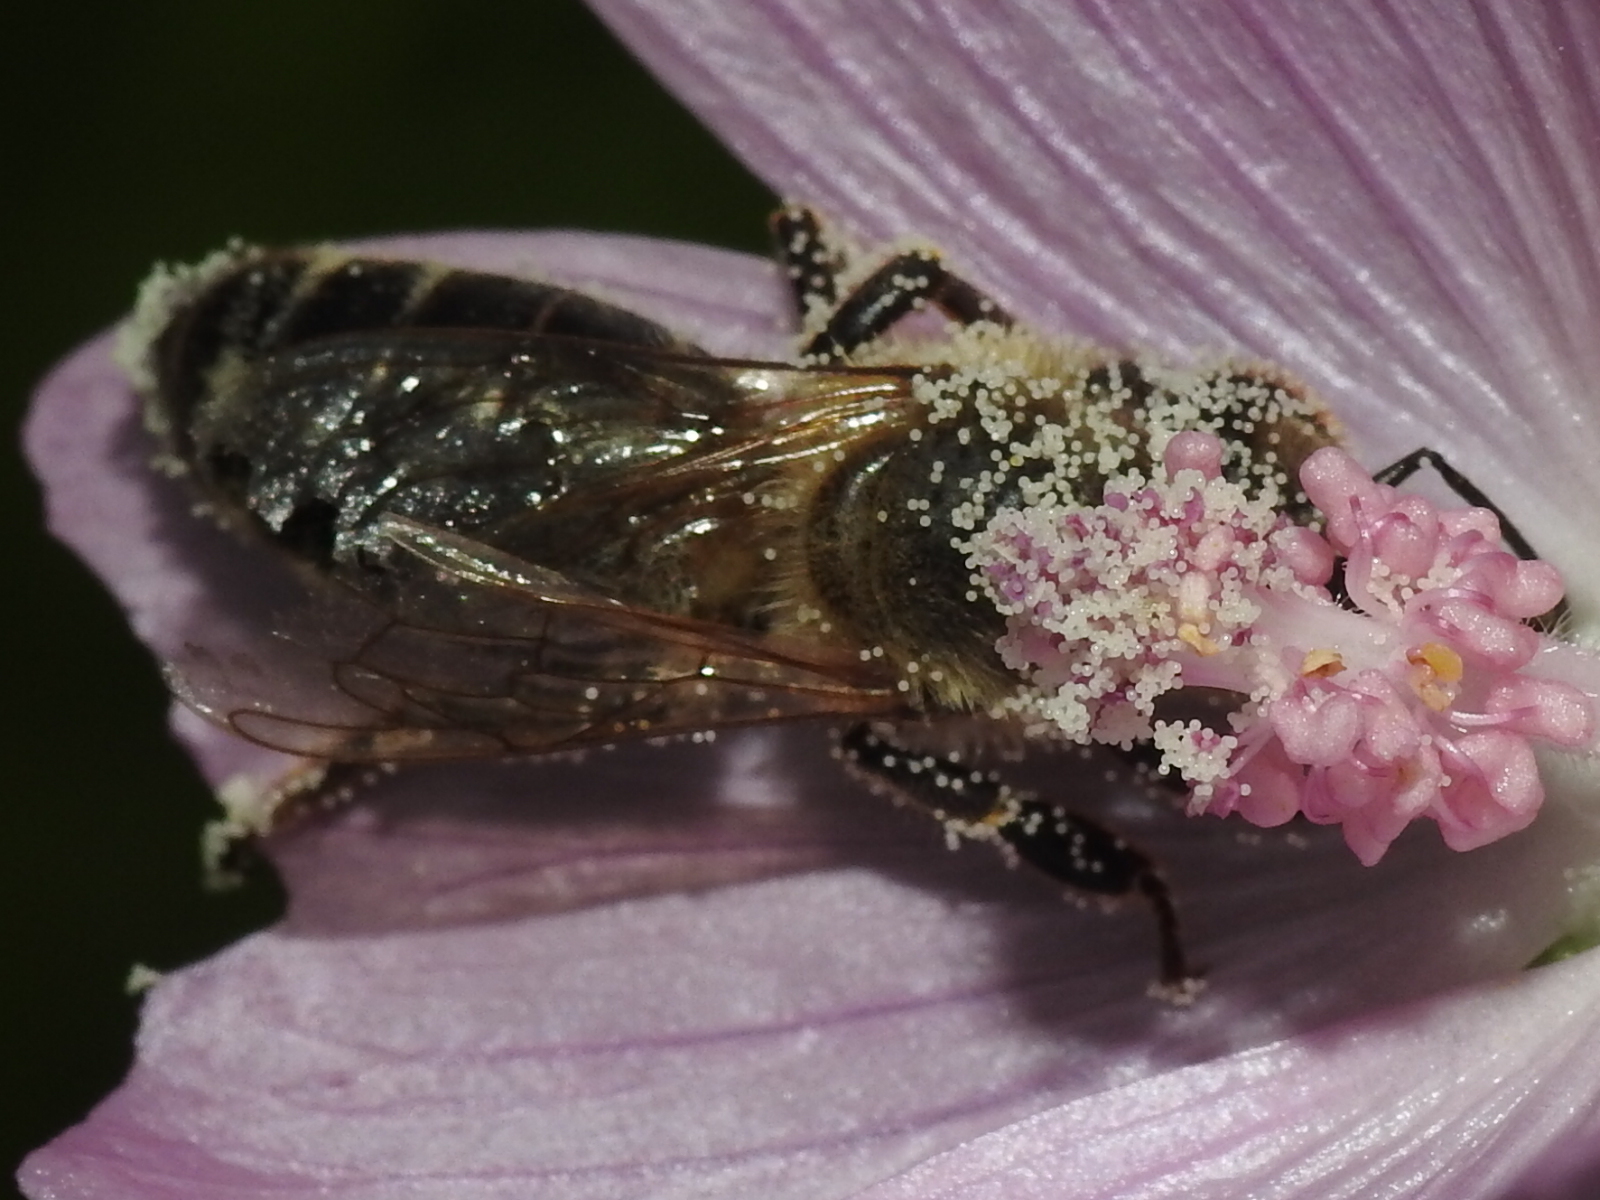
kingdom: Animalia
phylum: Arthropoda
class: Insecta
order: Hymenoptera
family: Apidae
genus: Apis
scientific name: Apis mellifera
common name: Honey bee
